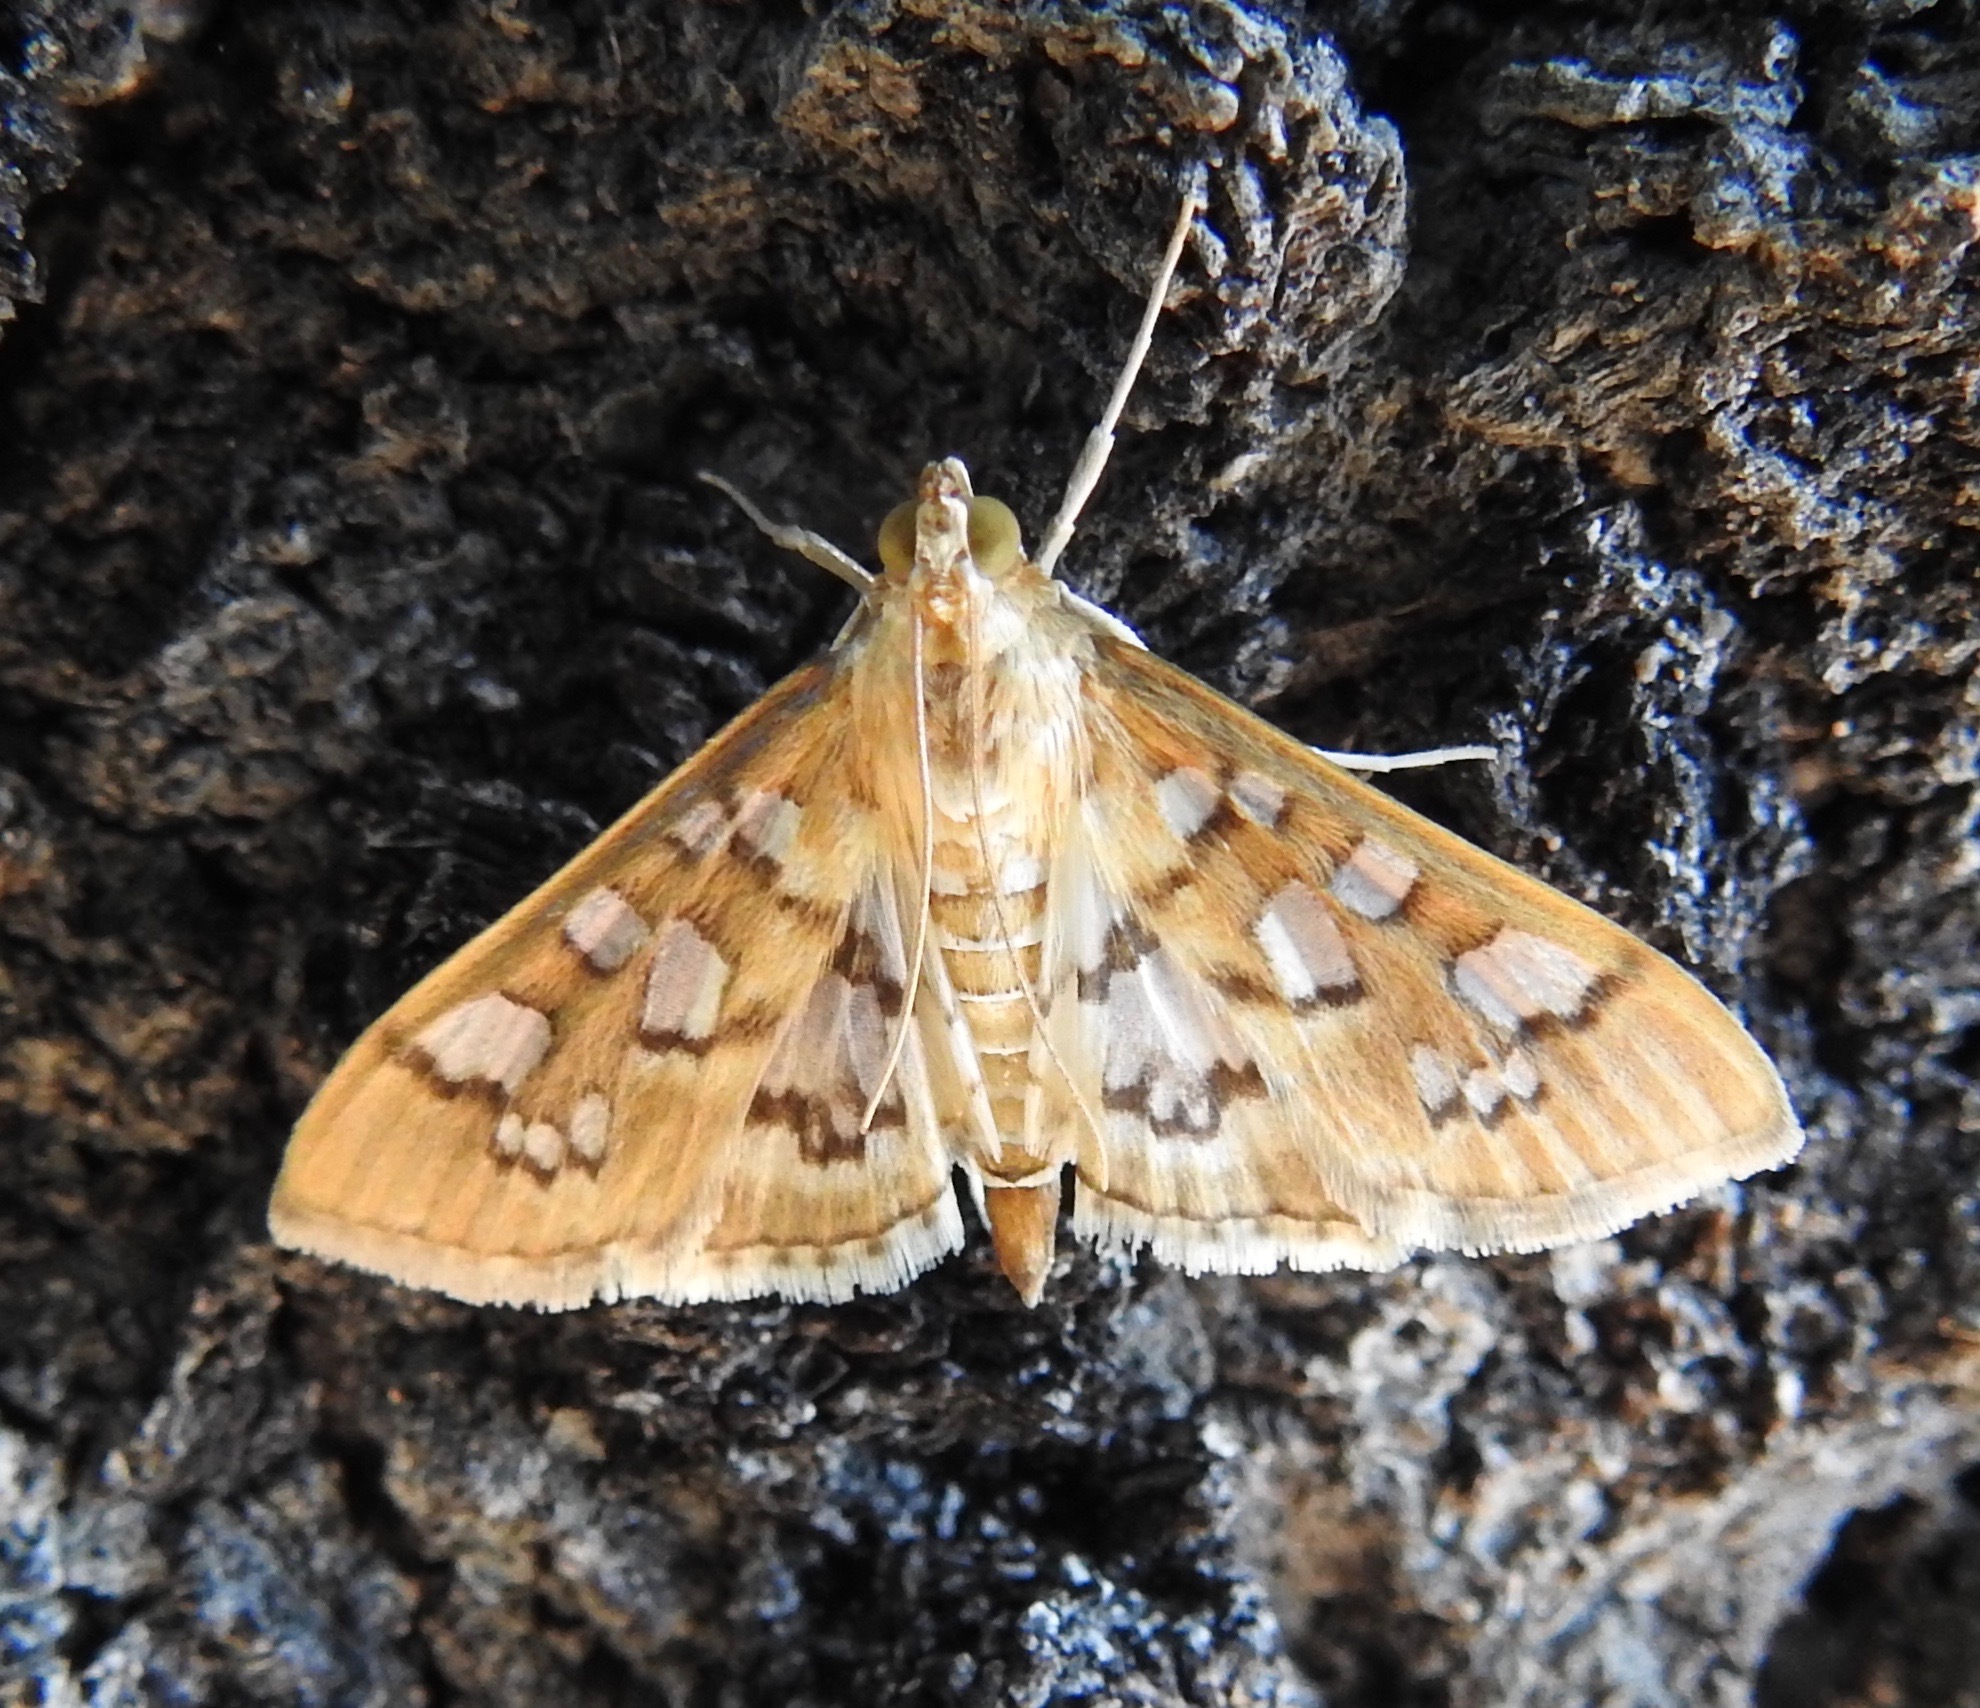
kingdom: Animalia
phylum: Arthropoda
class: Insecta
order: Lepidoptera
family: Crambidae
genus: Samea
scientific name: Samea baccatalis
